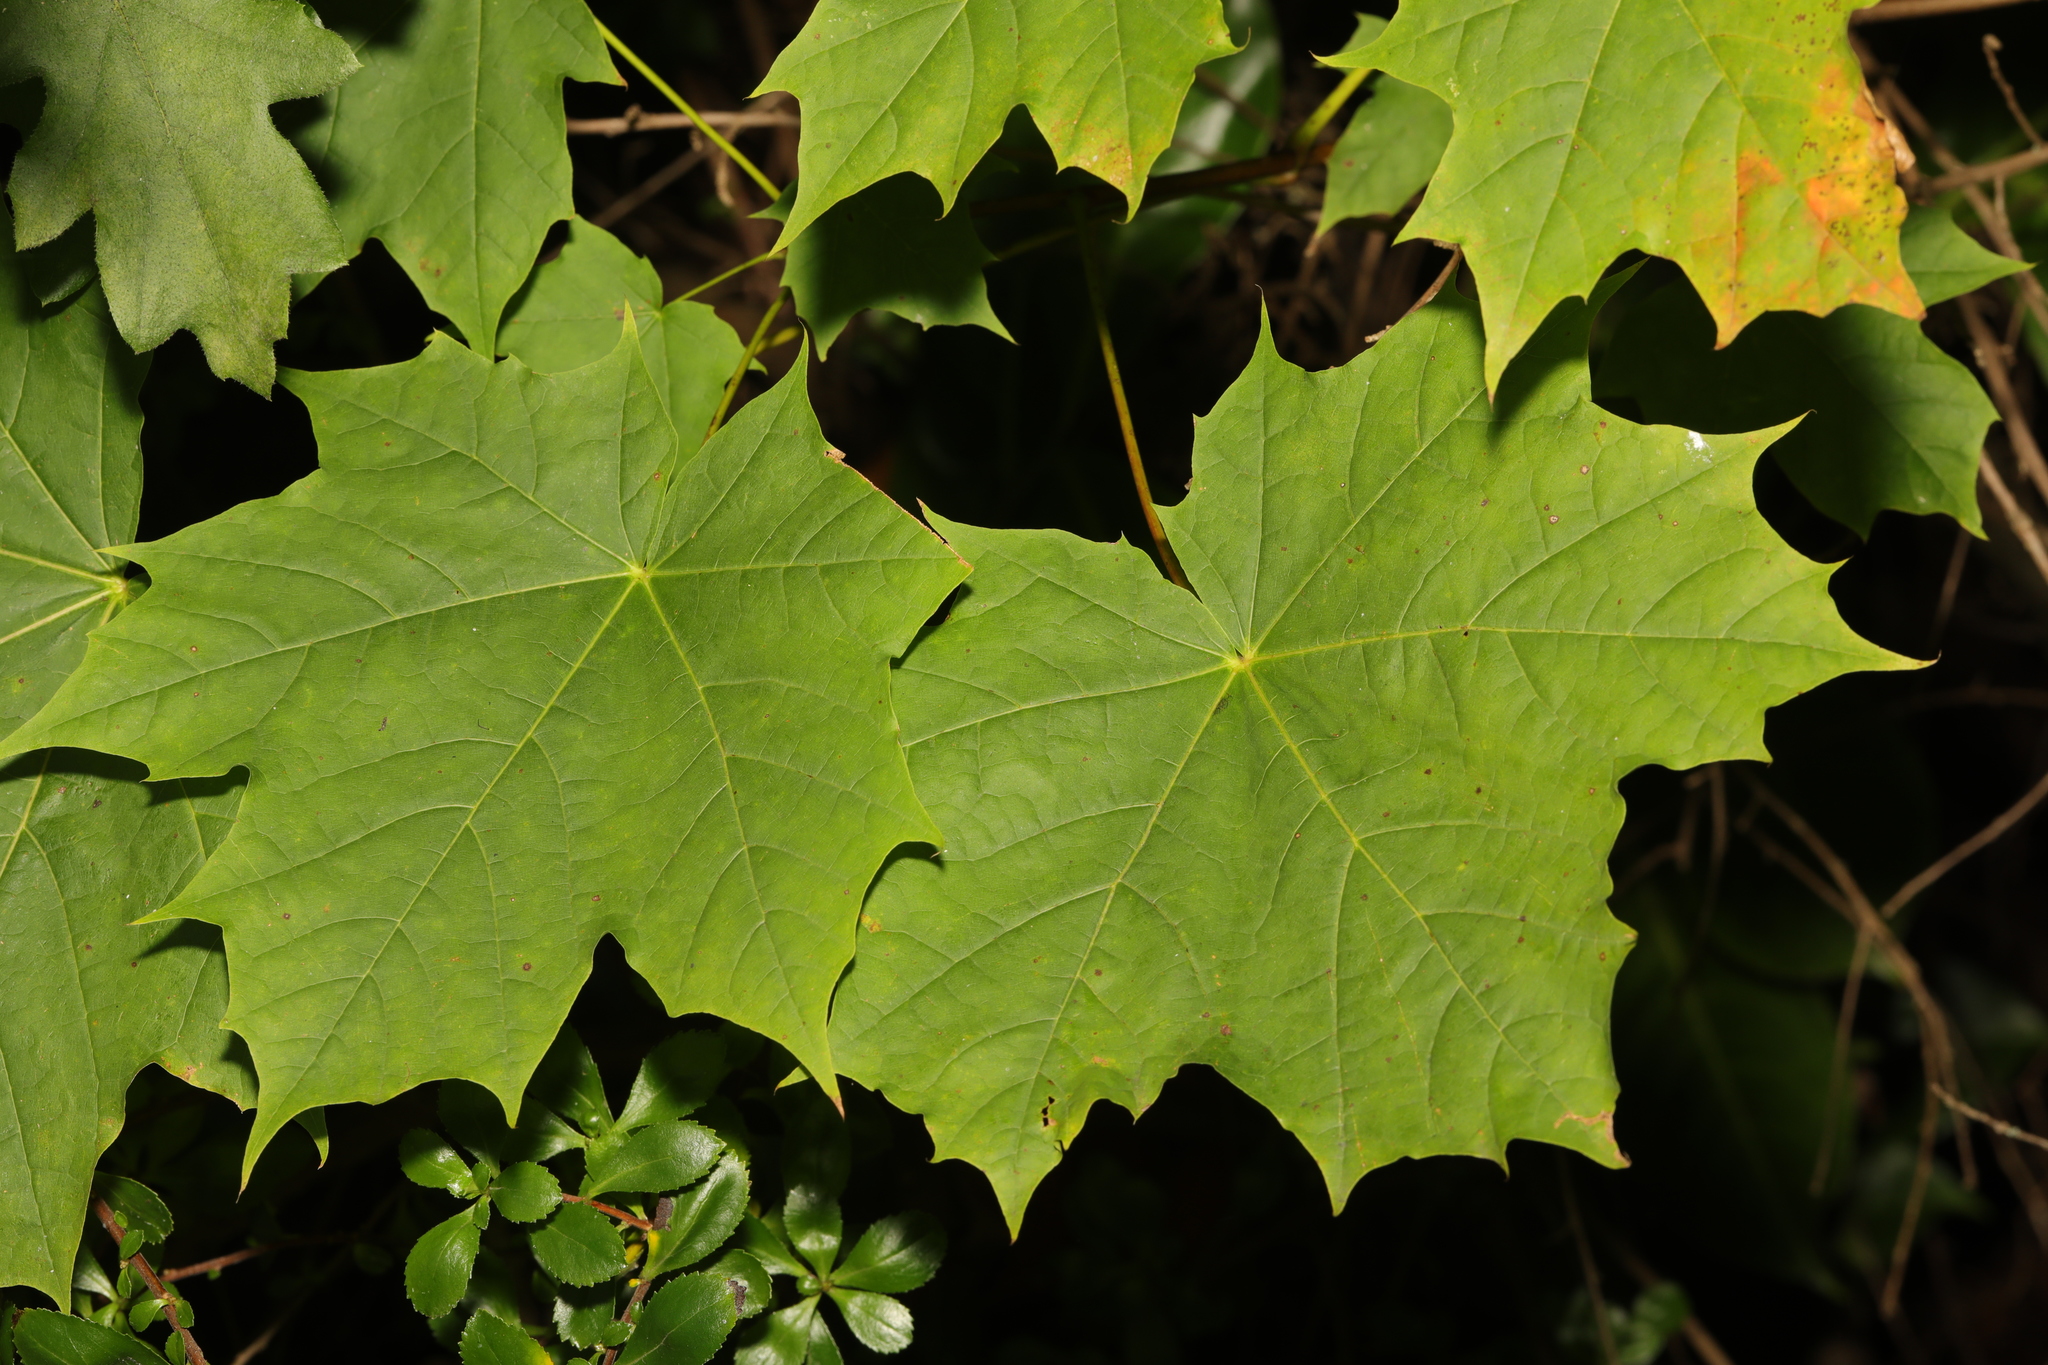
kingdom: Plantae
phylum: Tracheophyta
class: Magnoliopsida
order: Sapindales
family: Sapindaceae
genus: Acer
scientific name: Acer platanoides
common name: Norway maple
